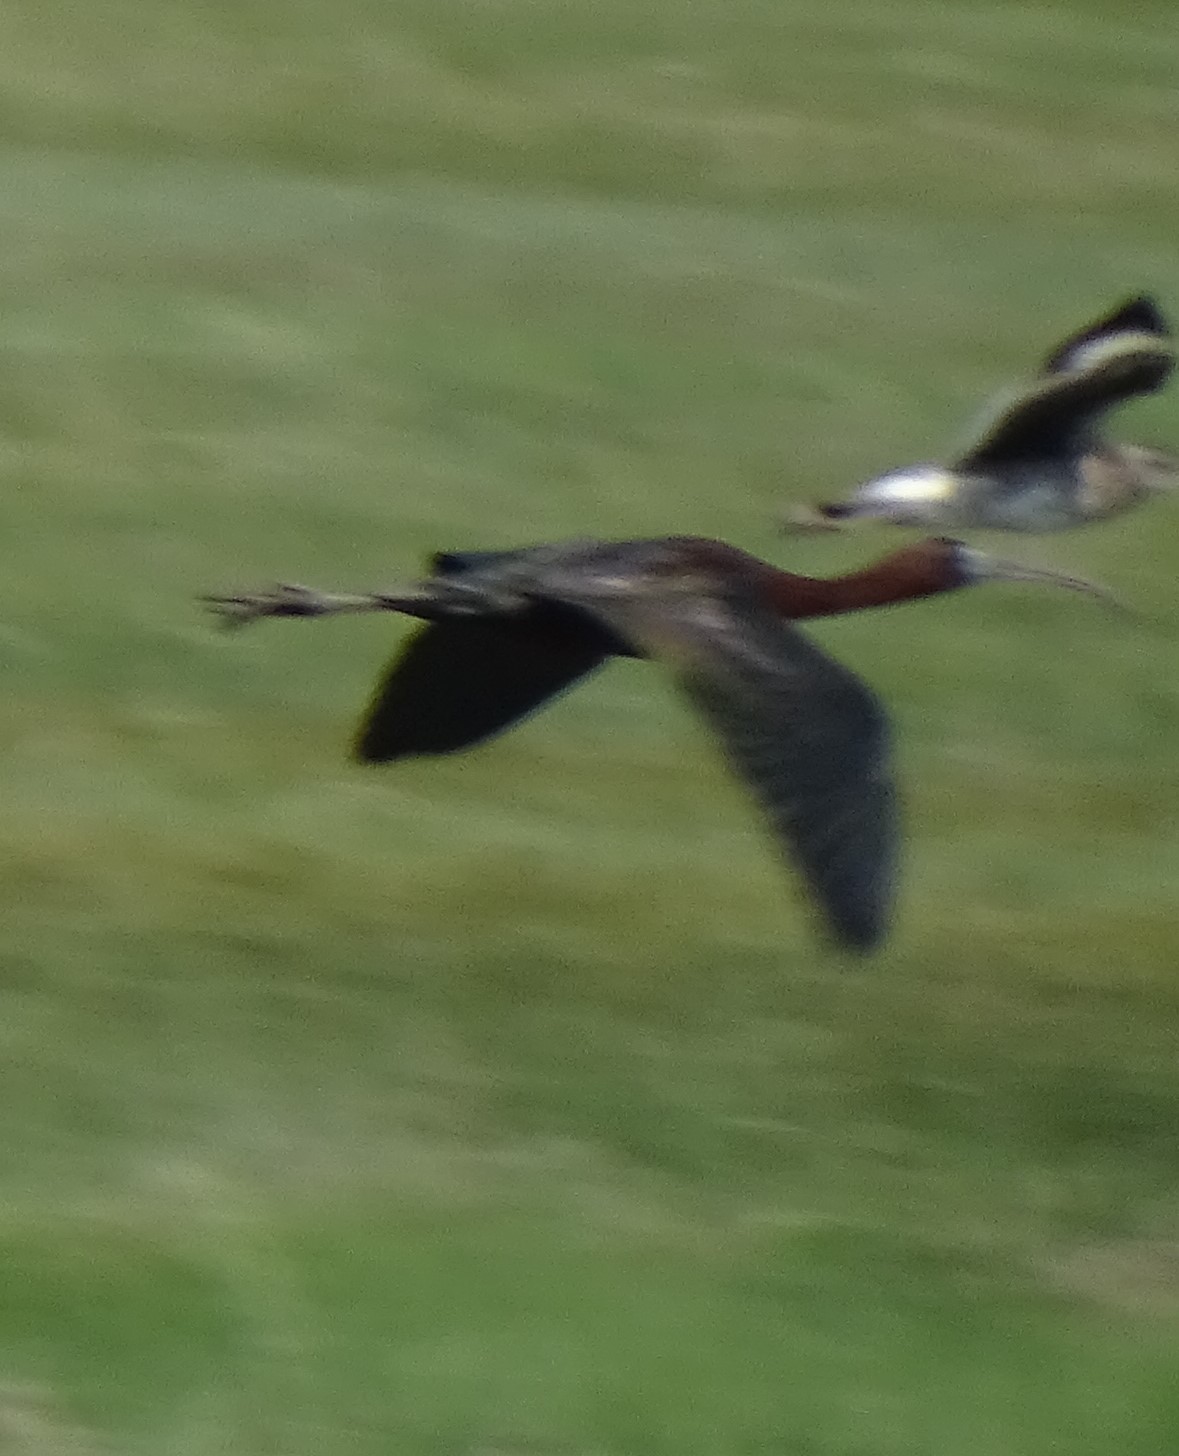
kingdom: Animalia
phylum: Chordata
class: Aves
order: Pelecaniformes
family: Threskiornithidae
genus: Plegadis
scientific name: Plegadis falcinellus
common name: Glossy ibis
